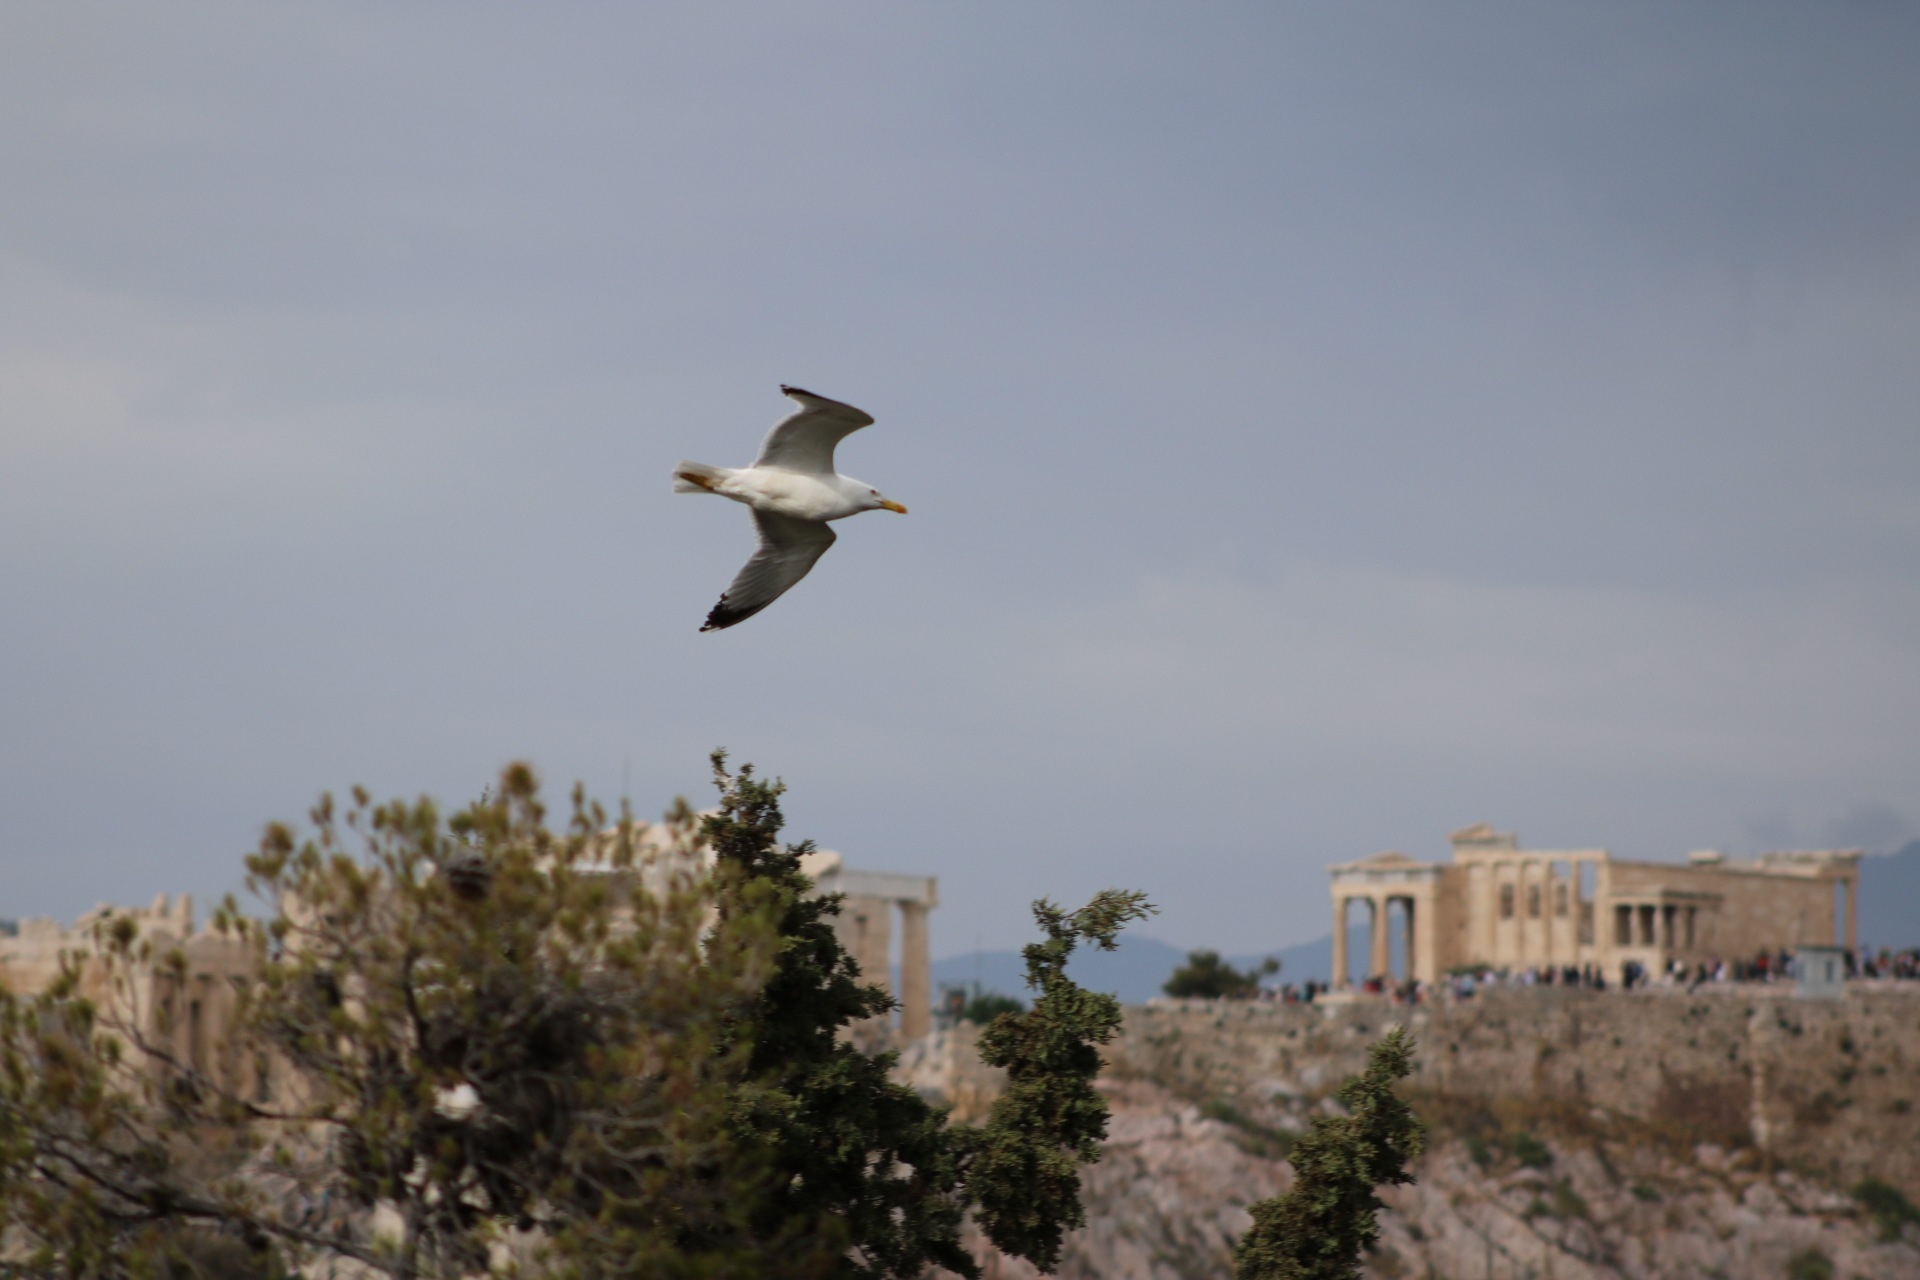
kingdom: Animalia
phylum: Chordata
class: Aves
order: Charadriiformes
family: Laridae
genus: Larus
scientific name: Larus michahellis
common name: Yellow-legged gull
